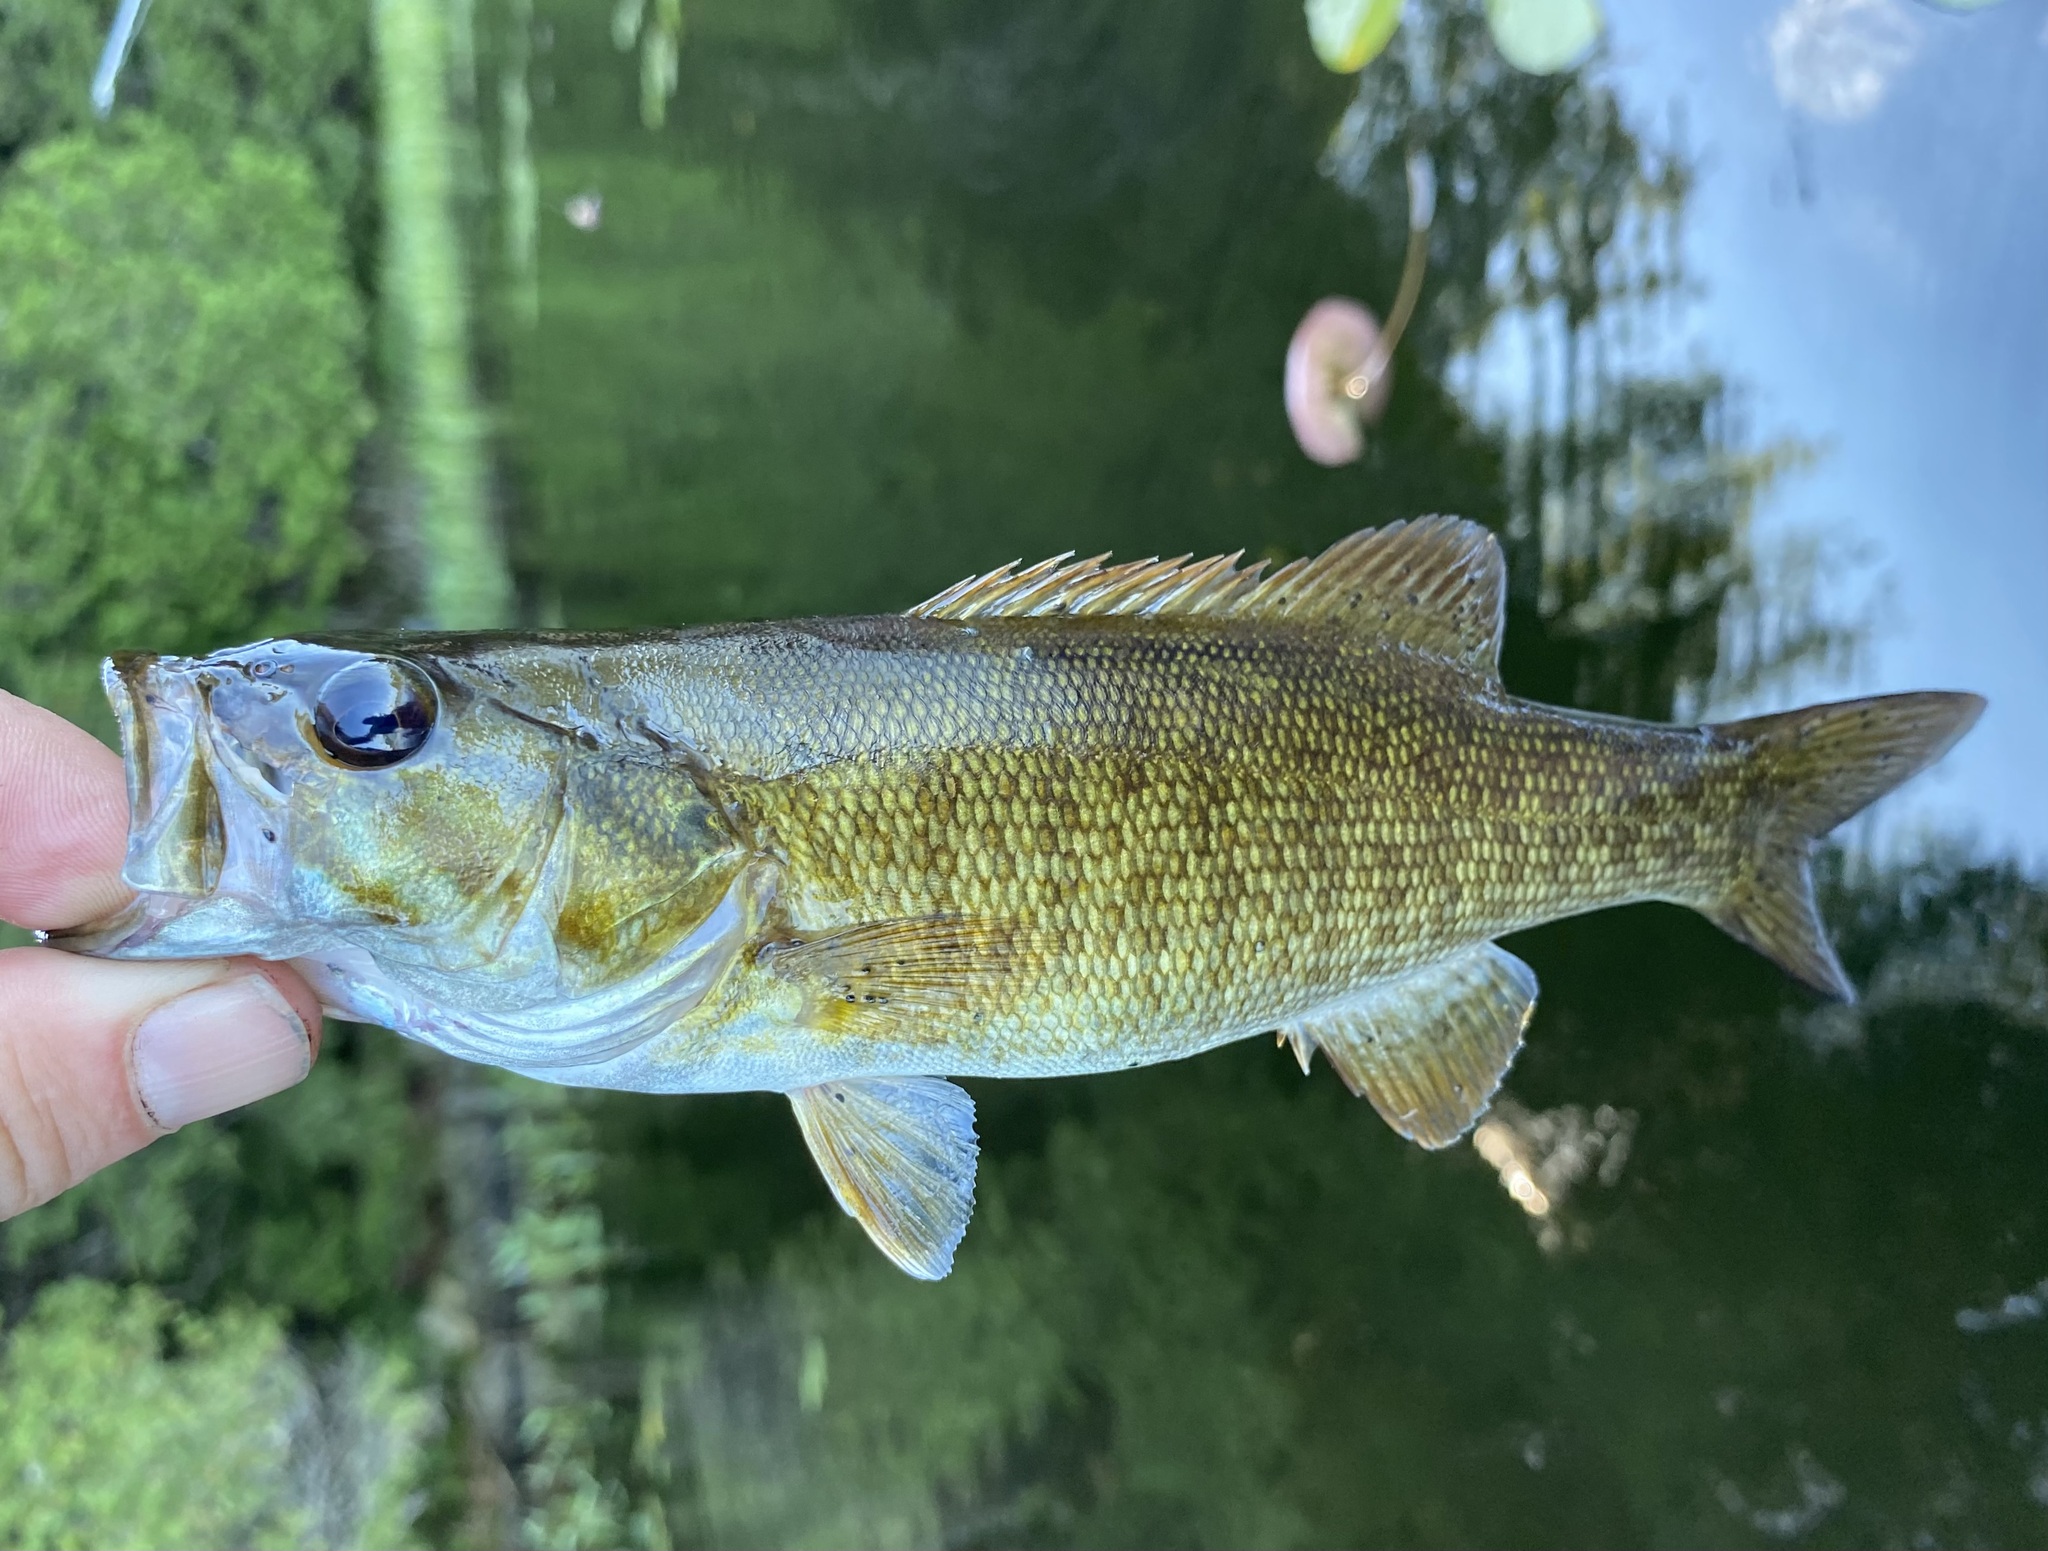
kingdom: Animalia
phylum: Chordata
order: Perciformes
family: Centrarchidae
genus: Micropterus
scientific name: Micropterus dolomieu
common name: Smallmouth bass
